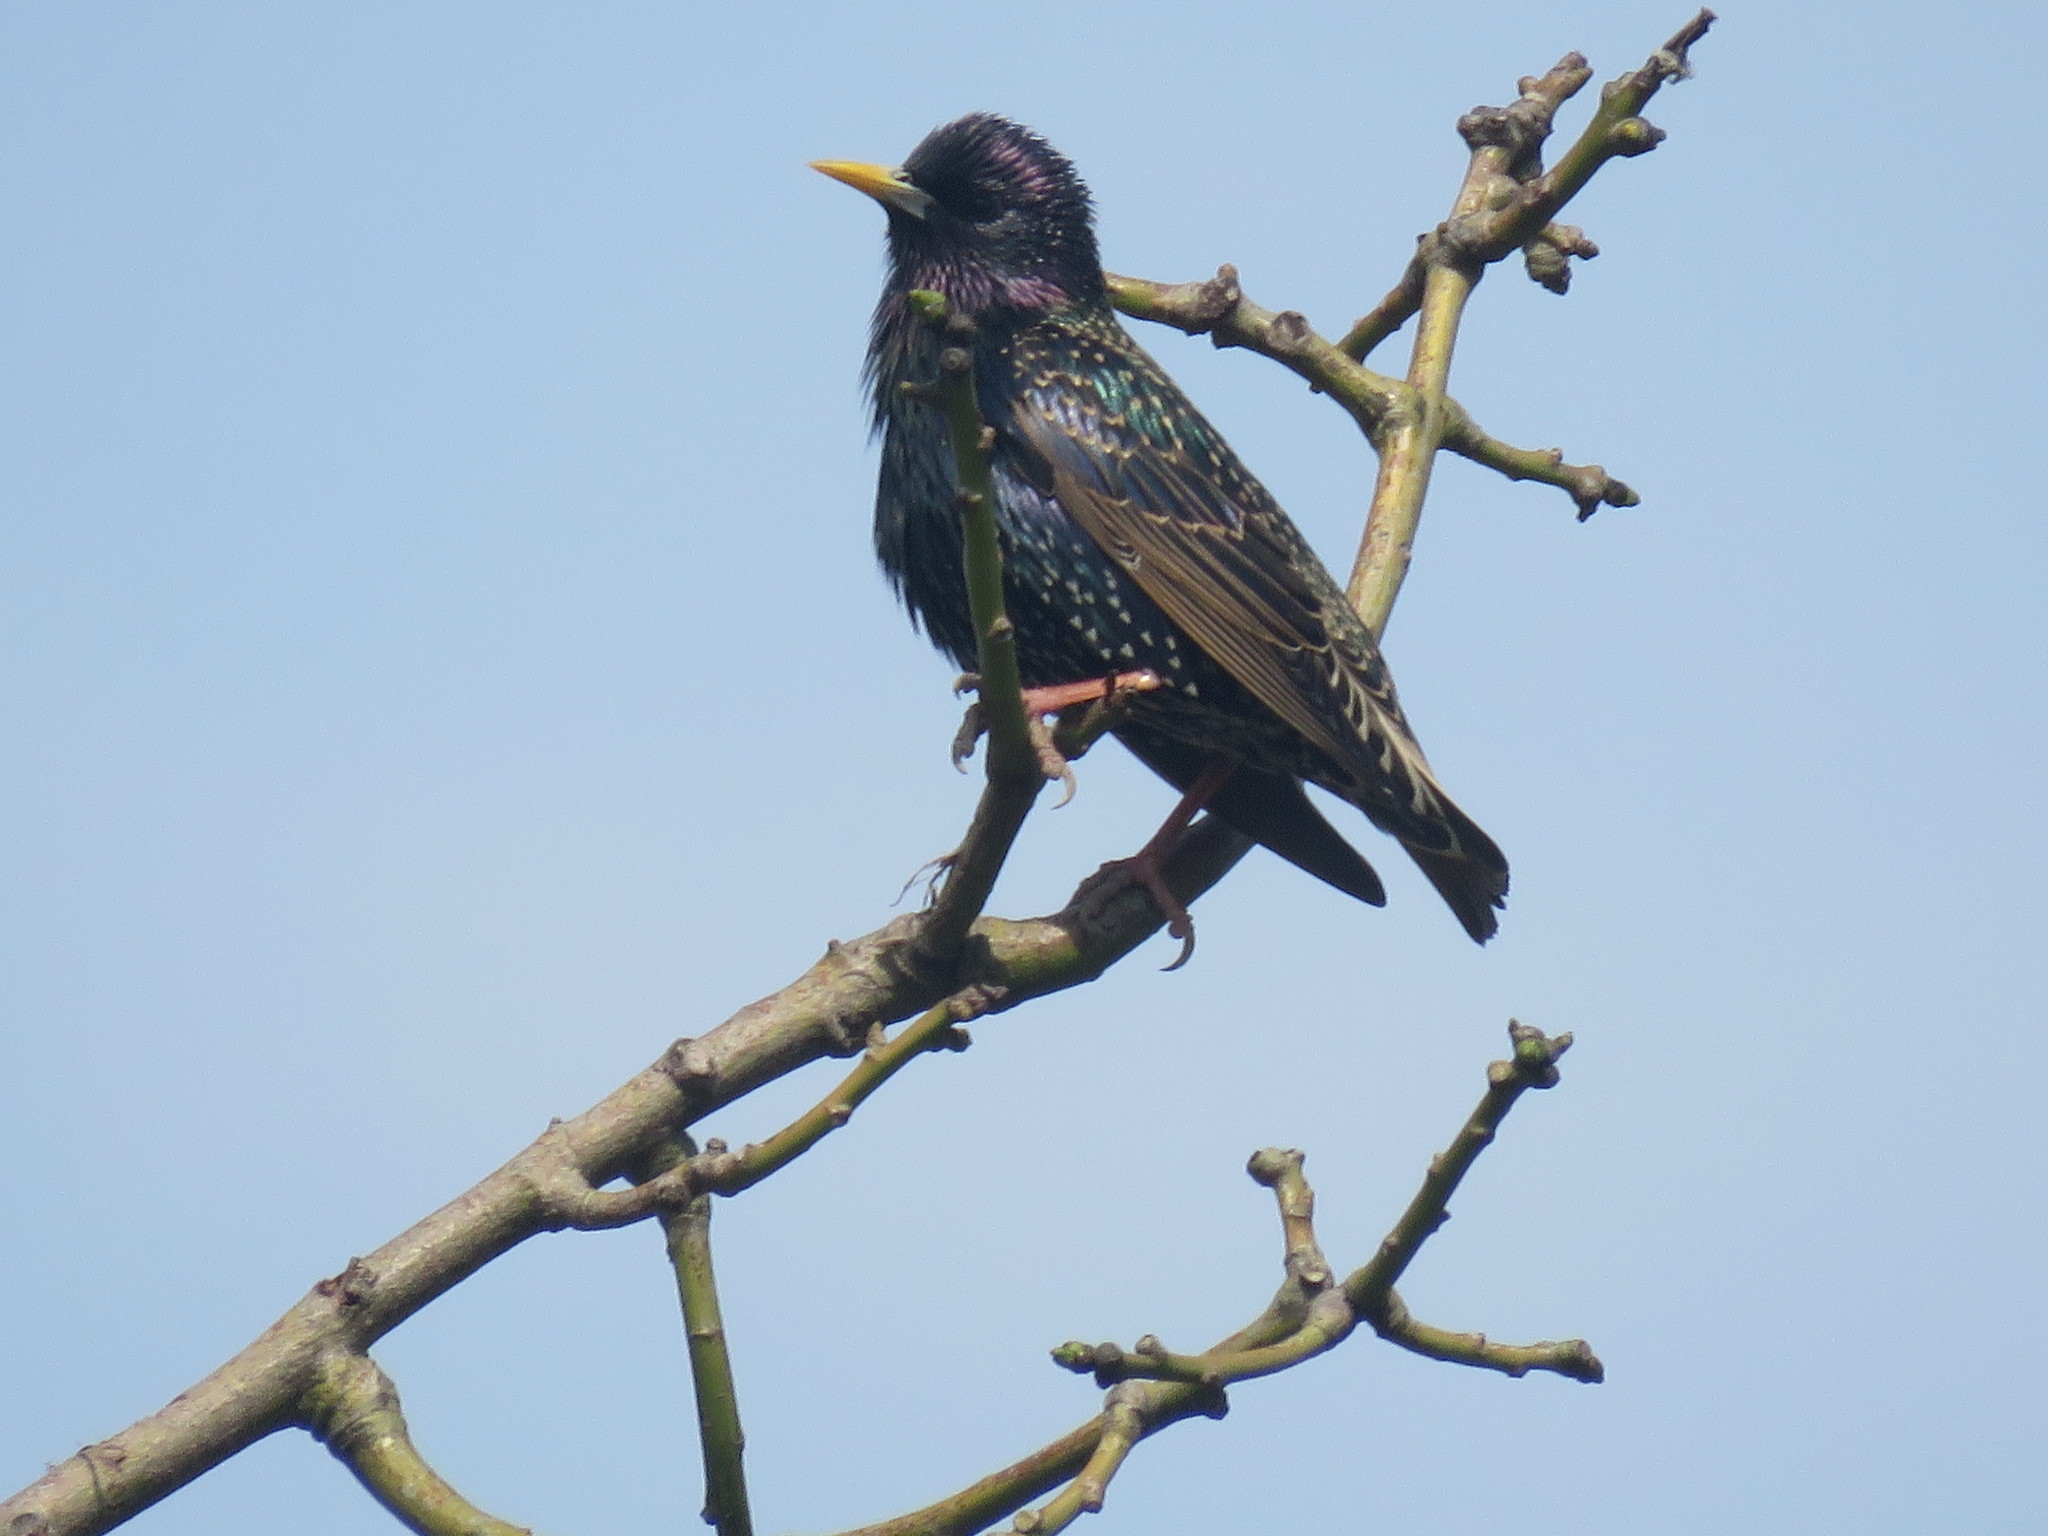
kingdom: Animalia
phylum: Chordata
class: Aves
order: Passeriformes
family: Sturnidae
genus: Sturnus
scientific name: Sturnus vulgaris
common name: Common starling
